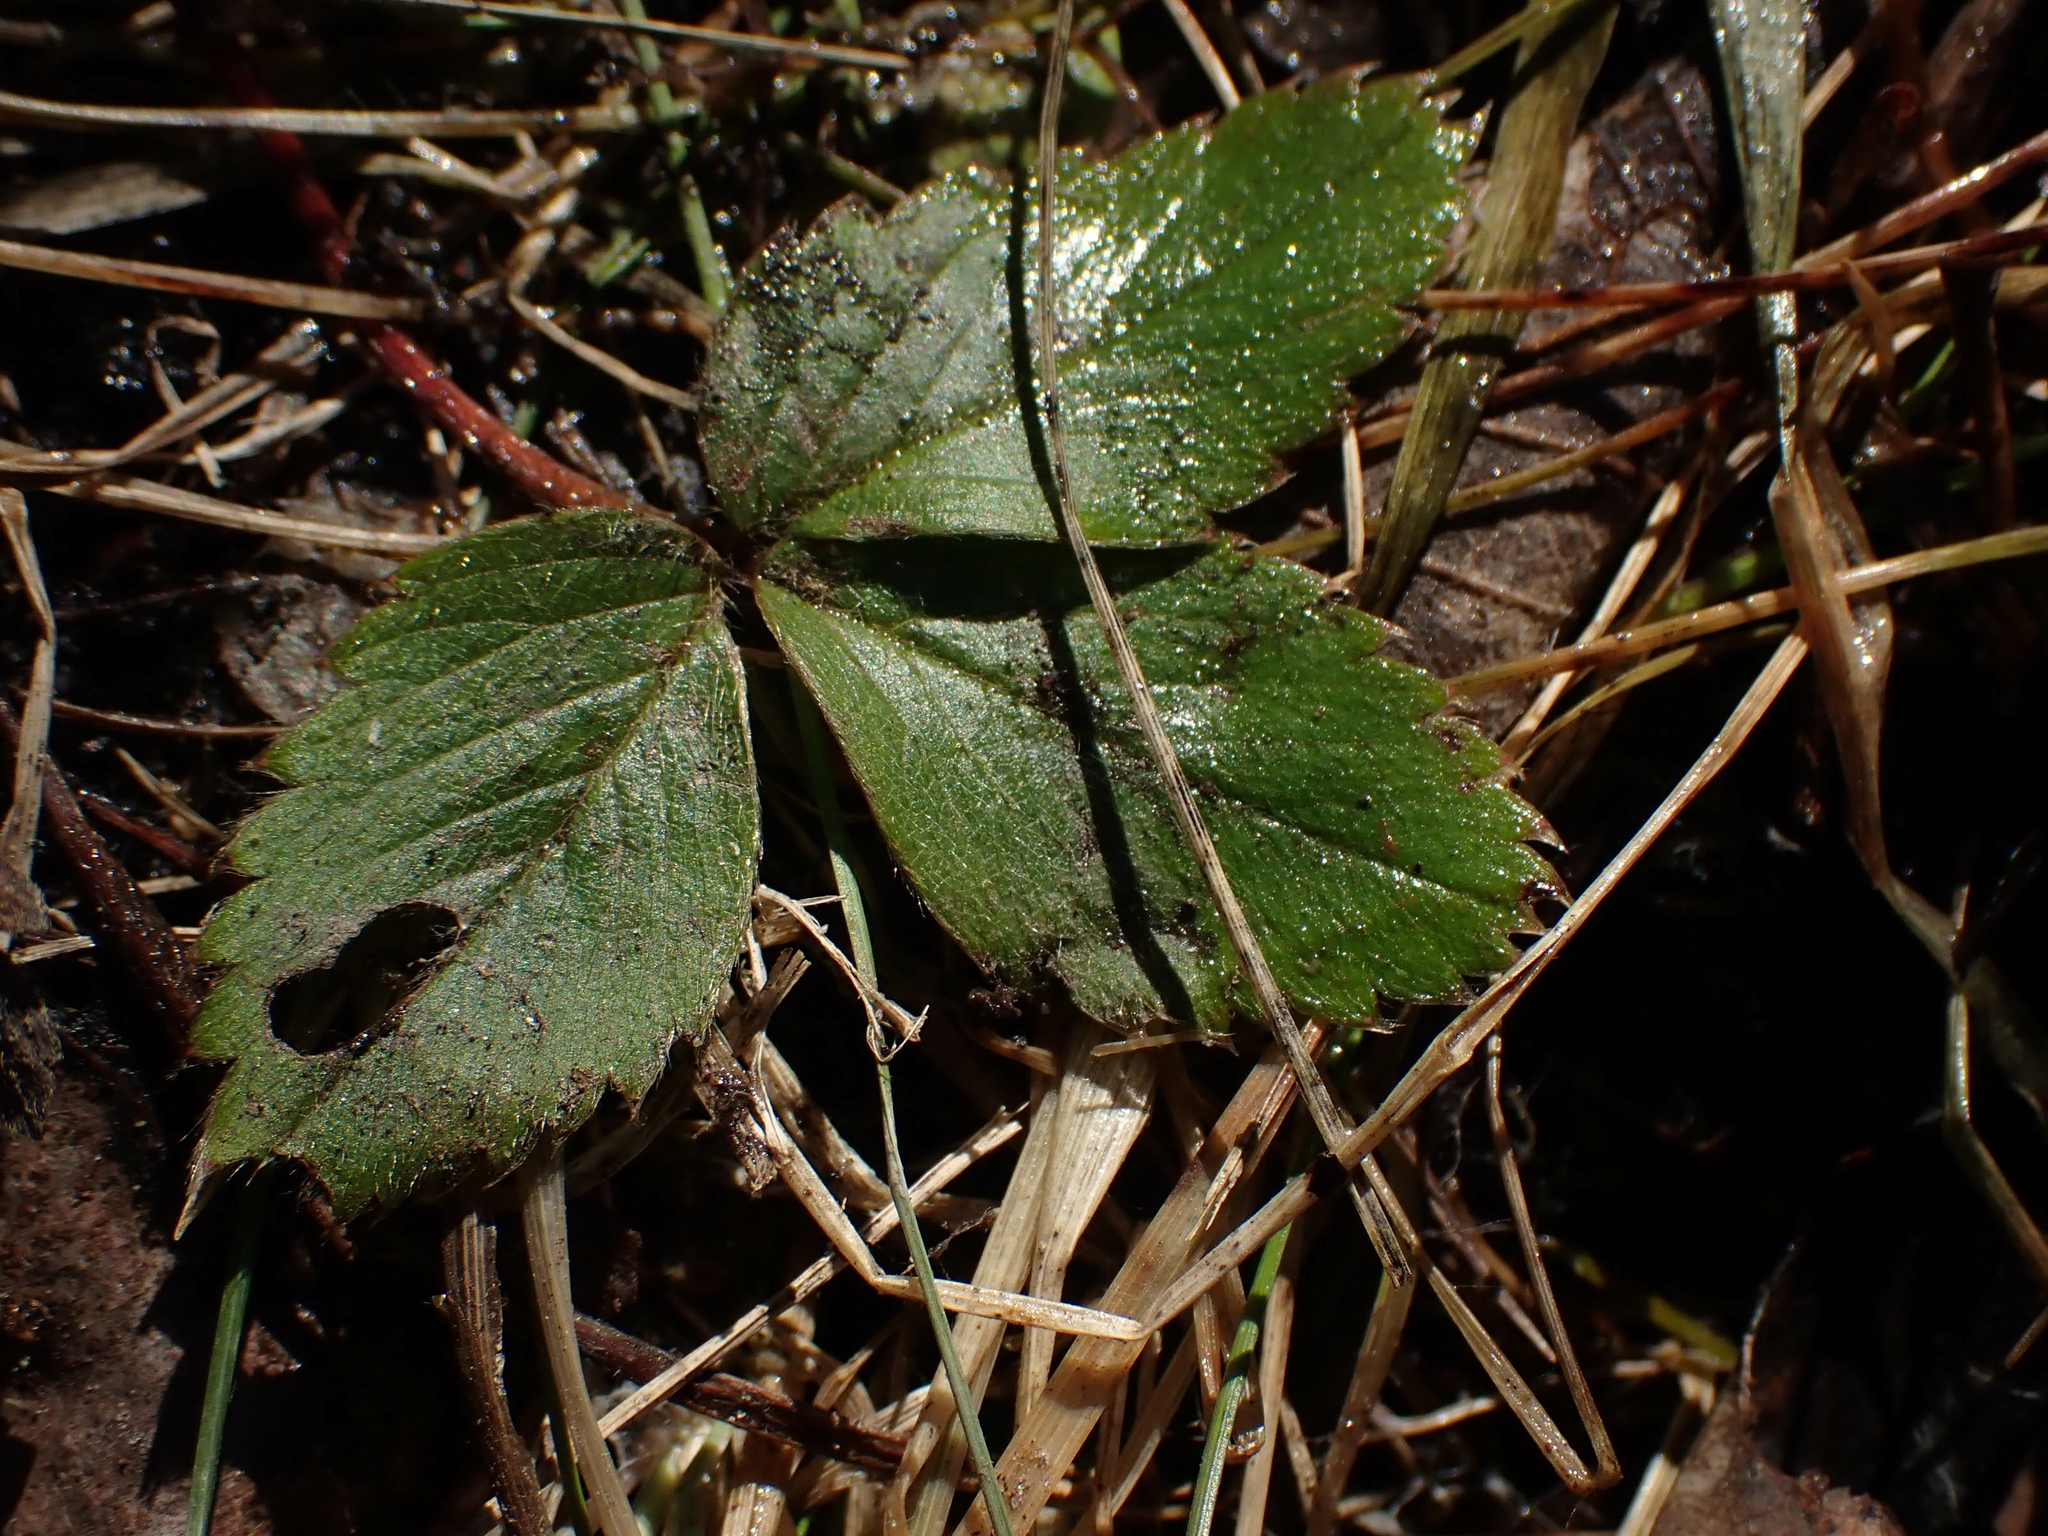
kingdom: Plantae
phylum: Tracheophyta
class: Magnoliopsida
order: Rosales
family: Rosaceae
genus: Fragaria
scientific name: Fragaria virginiana
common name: Thickleaved wild strawberry
